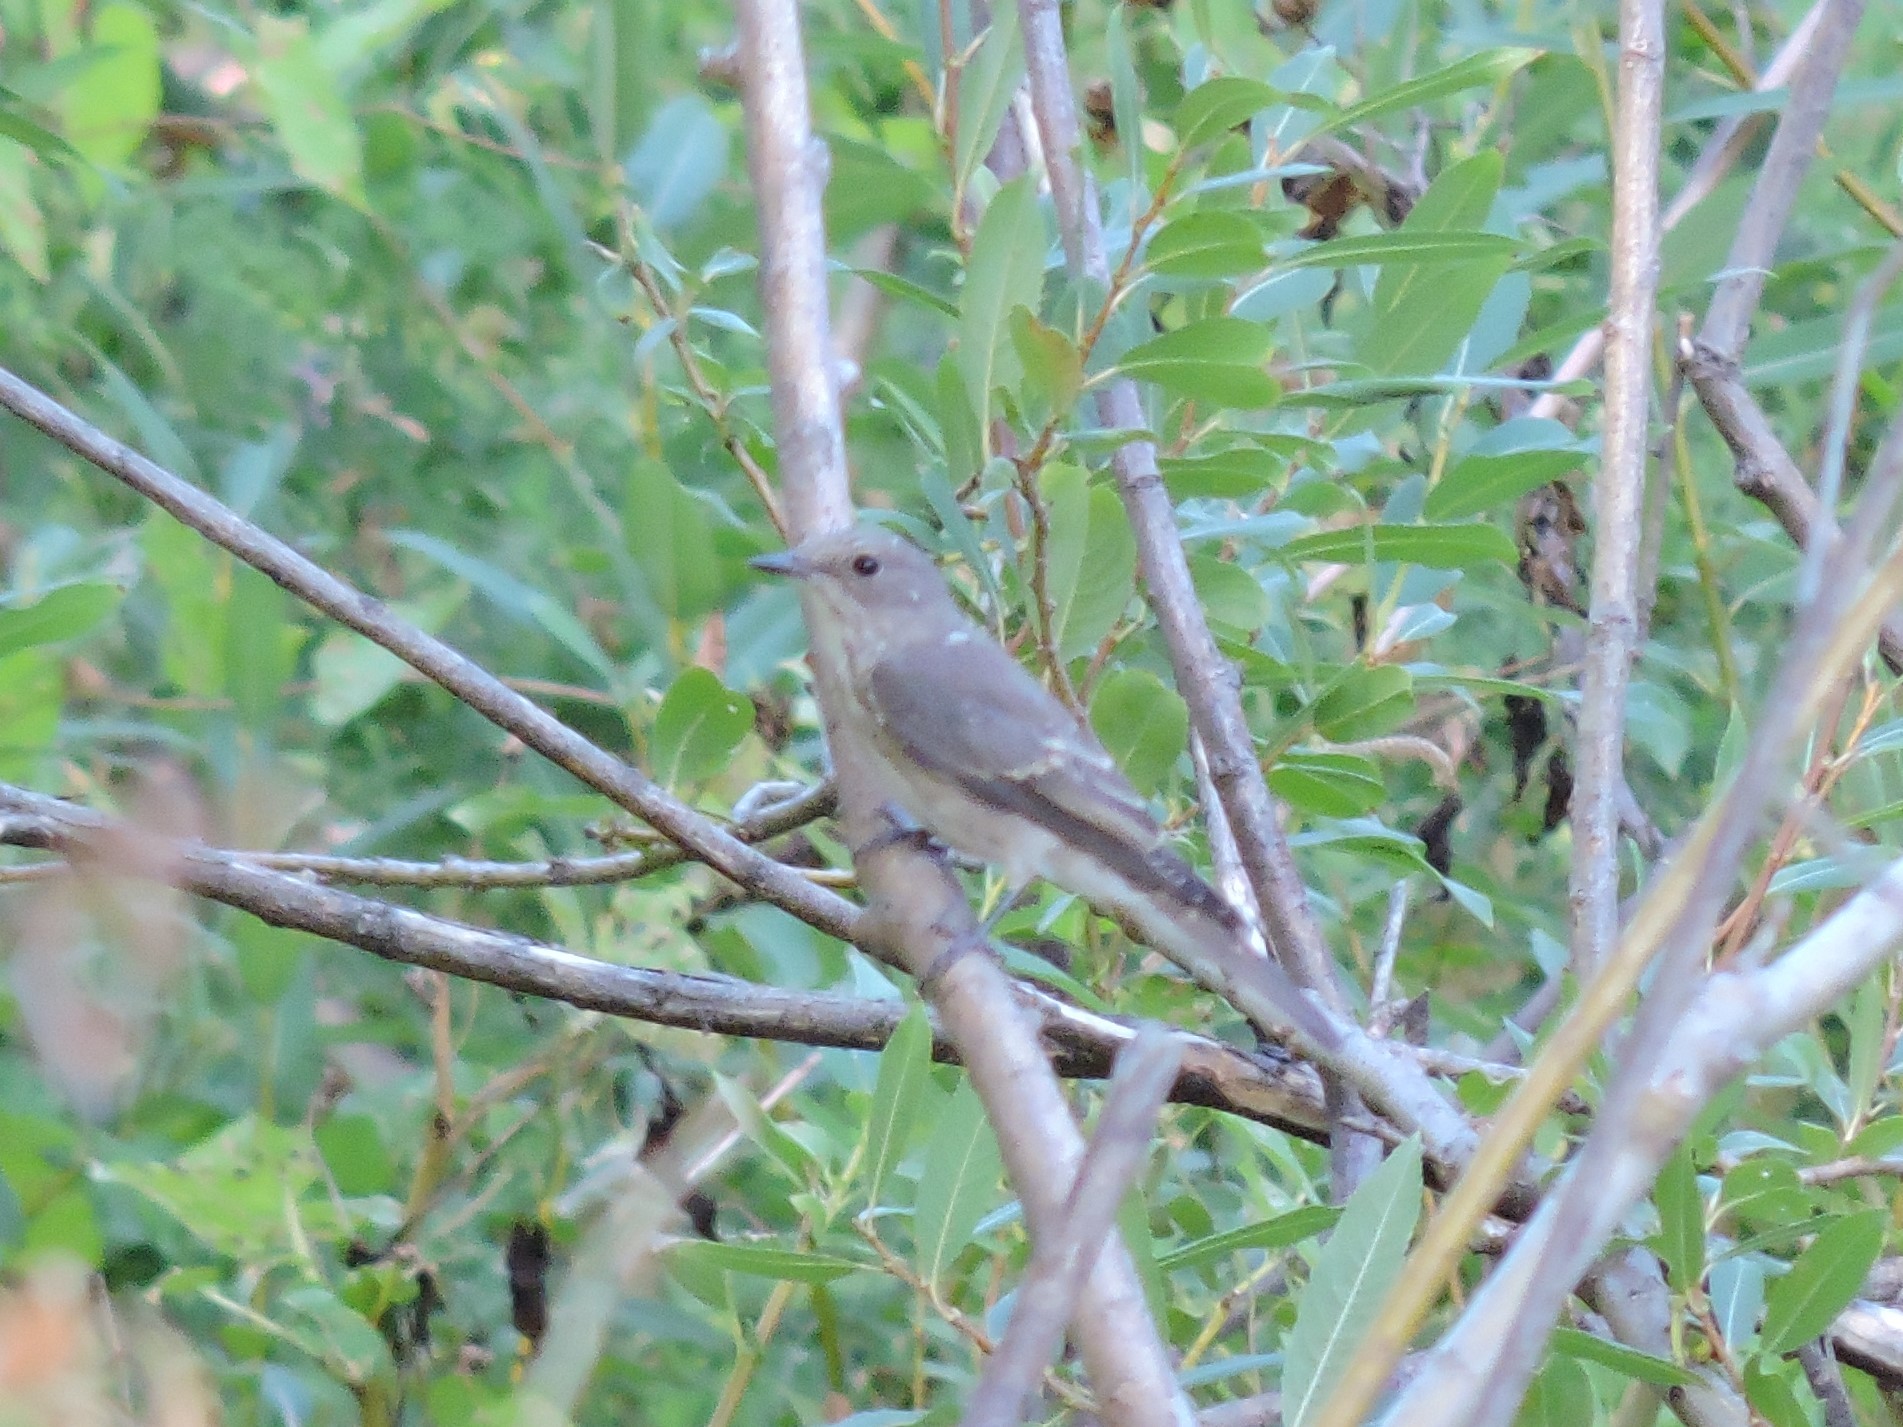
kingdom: Animalia
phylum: Chordata
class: Aves
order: Passeriformes
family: Muscicapidae
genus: Muscicapa
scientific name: Muscicapa striata
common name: Spotted flycatcher
